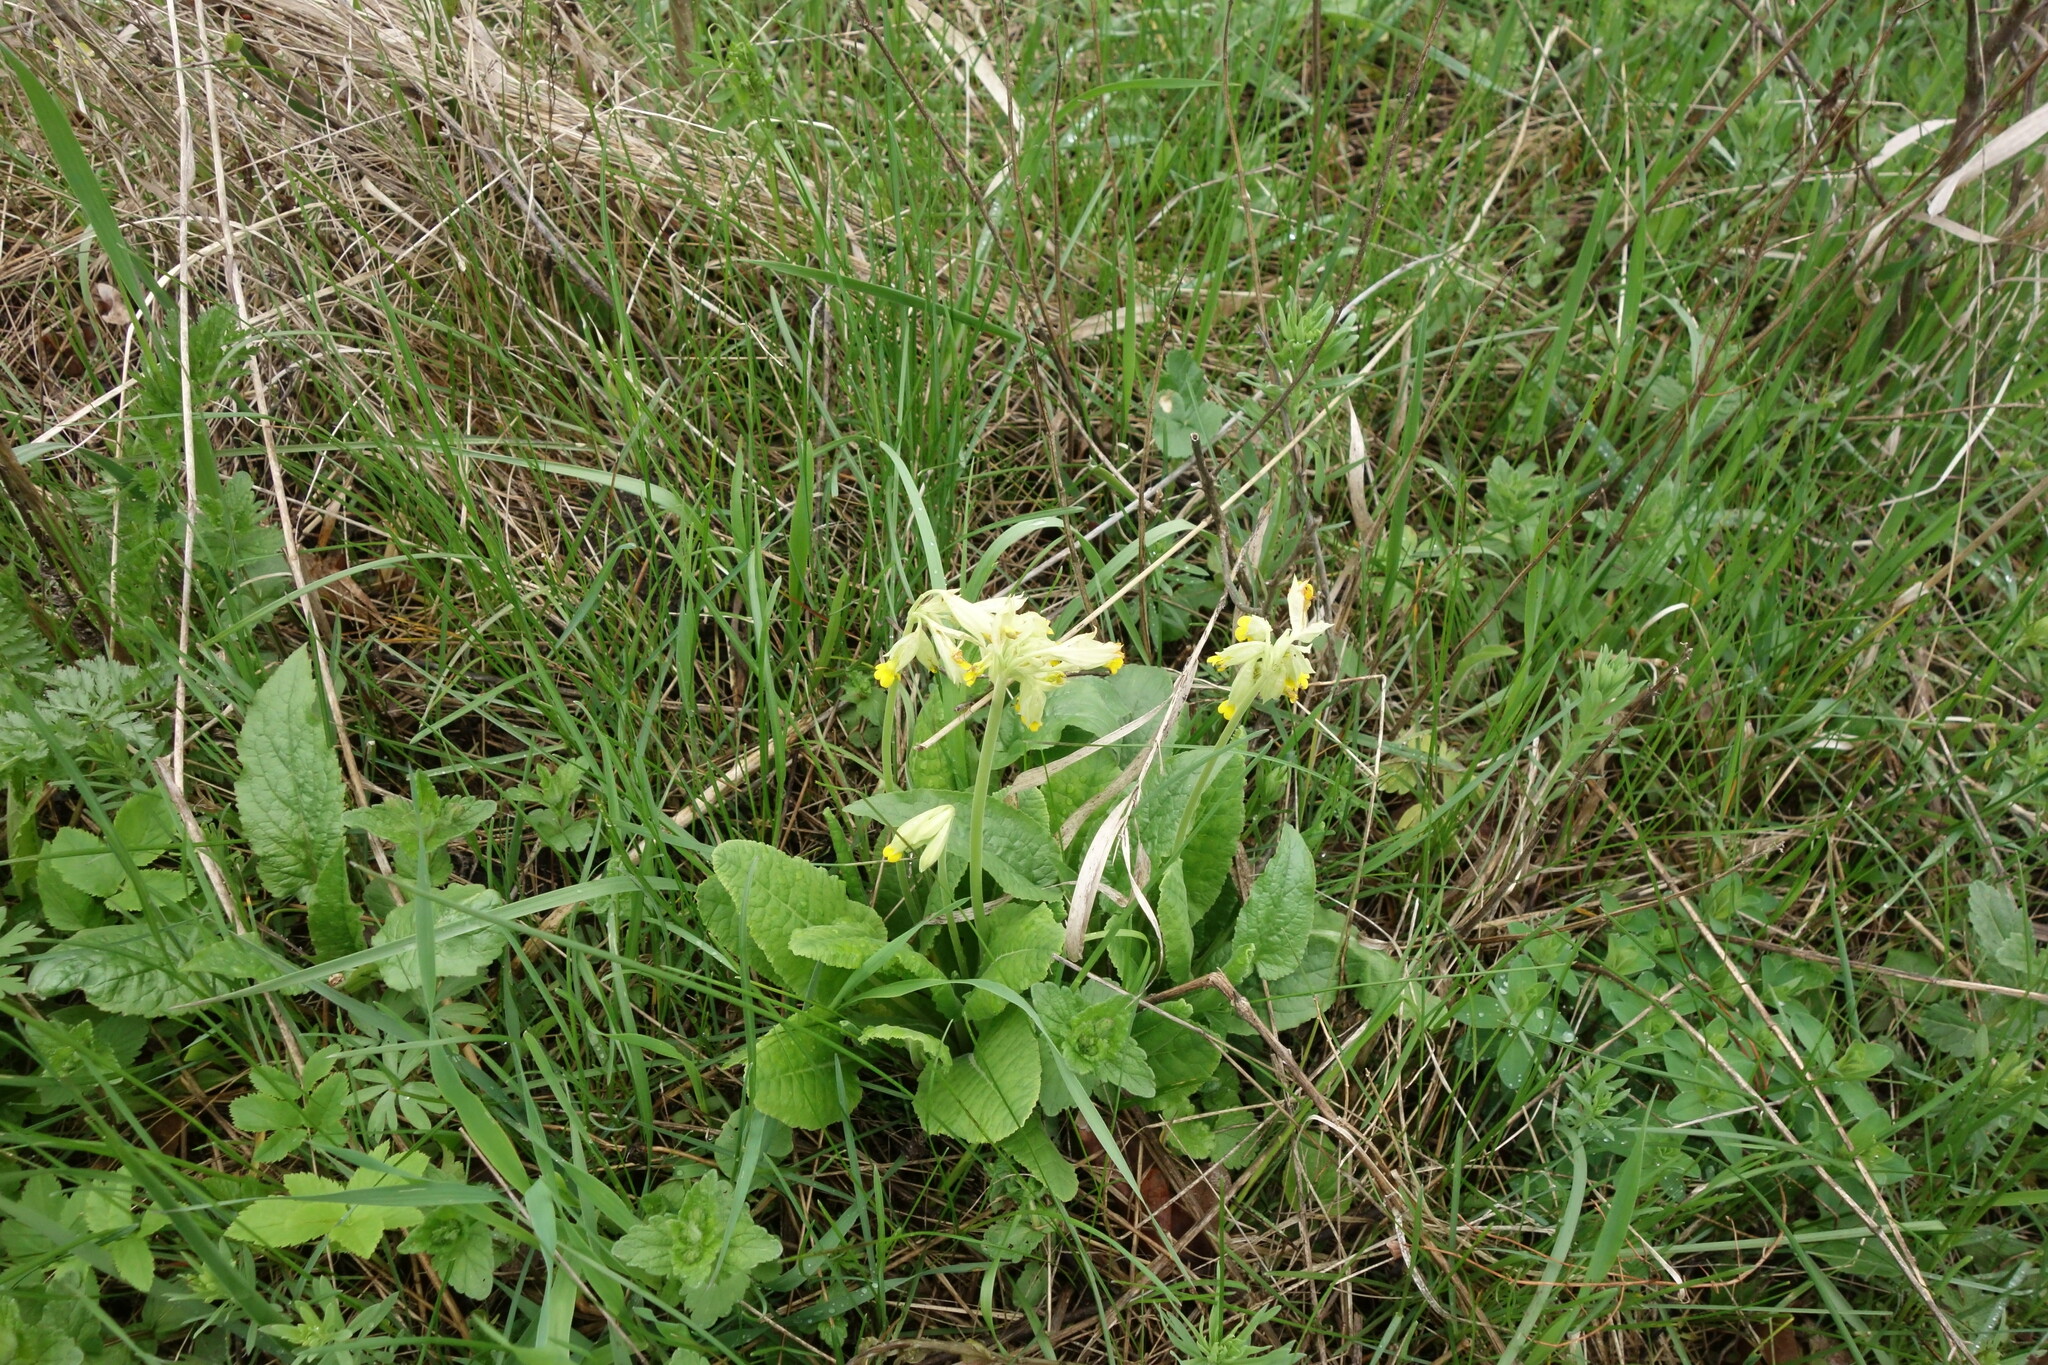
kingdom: Plantae
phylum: Tracheophyta
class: Magnoliopsida
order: Ericales
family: Primulaceae
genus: Primula
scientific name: Primula veris
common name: Cowslip
